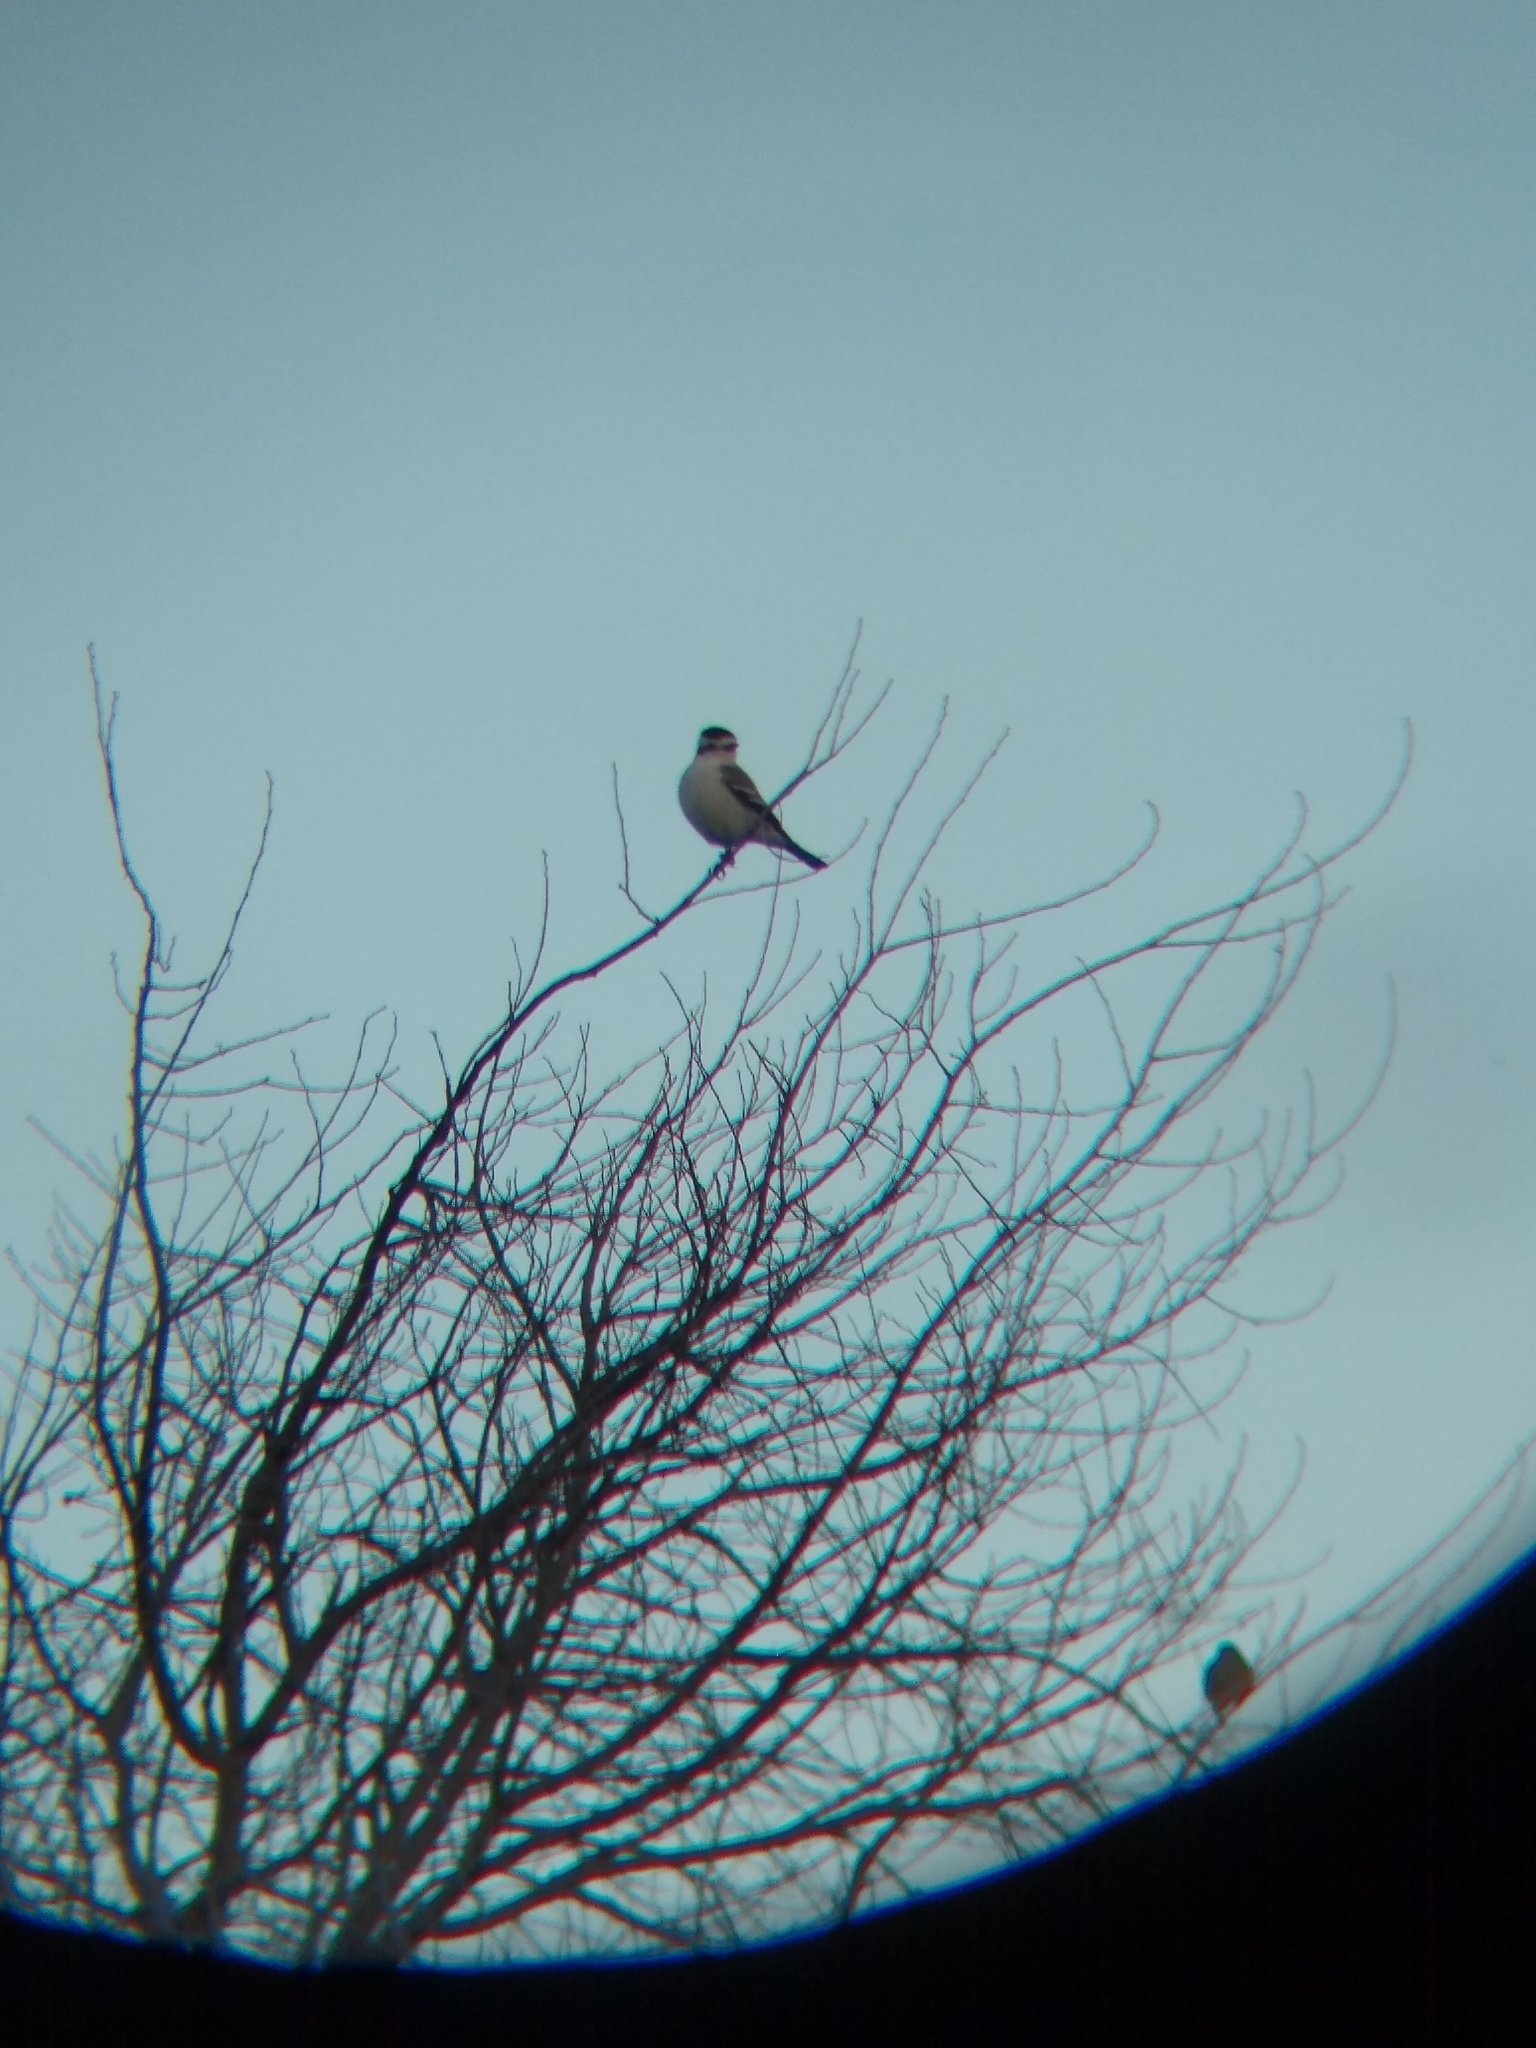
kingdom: Animalia
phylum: Chordata
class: Aves
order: Passeriformes
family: Tyrannidae
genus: Xolmis
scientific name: Xolmis coronatus
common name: Black-crowned monjita
